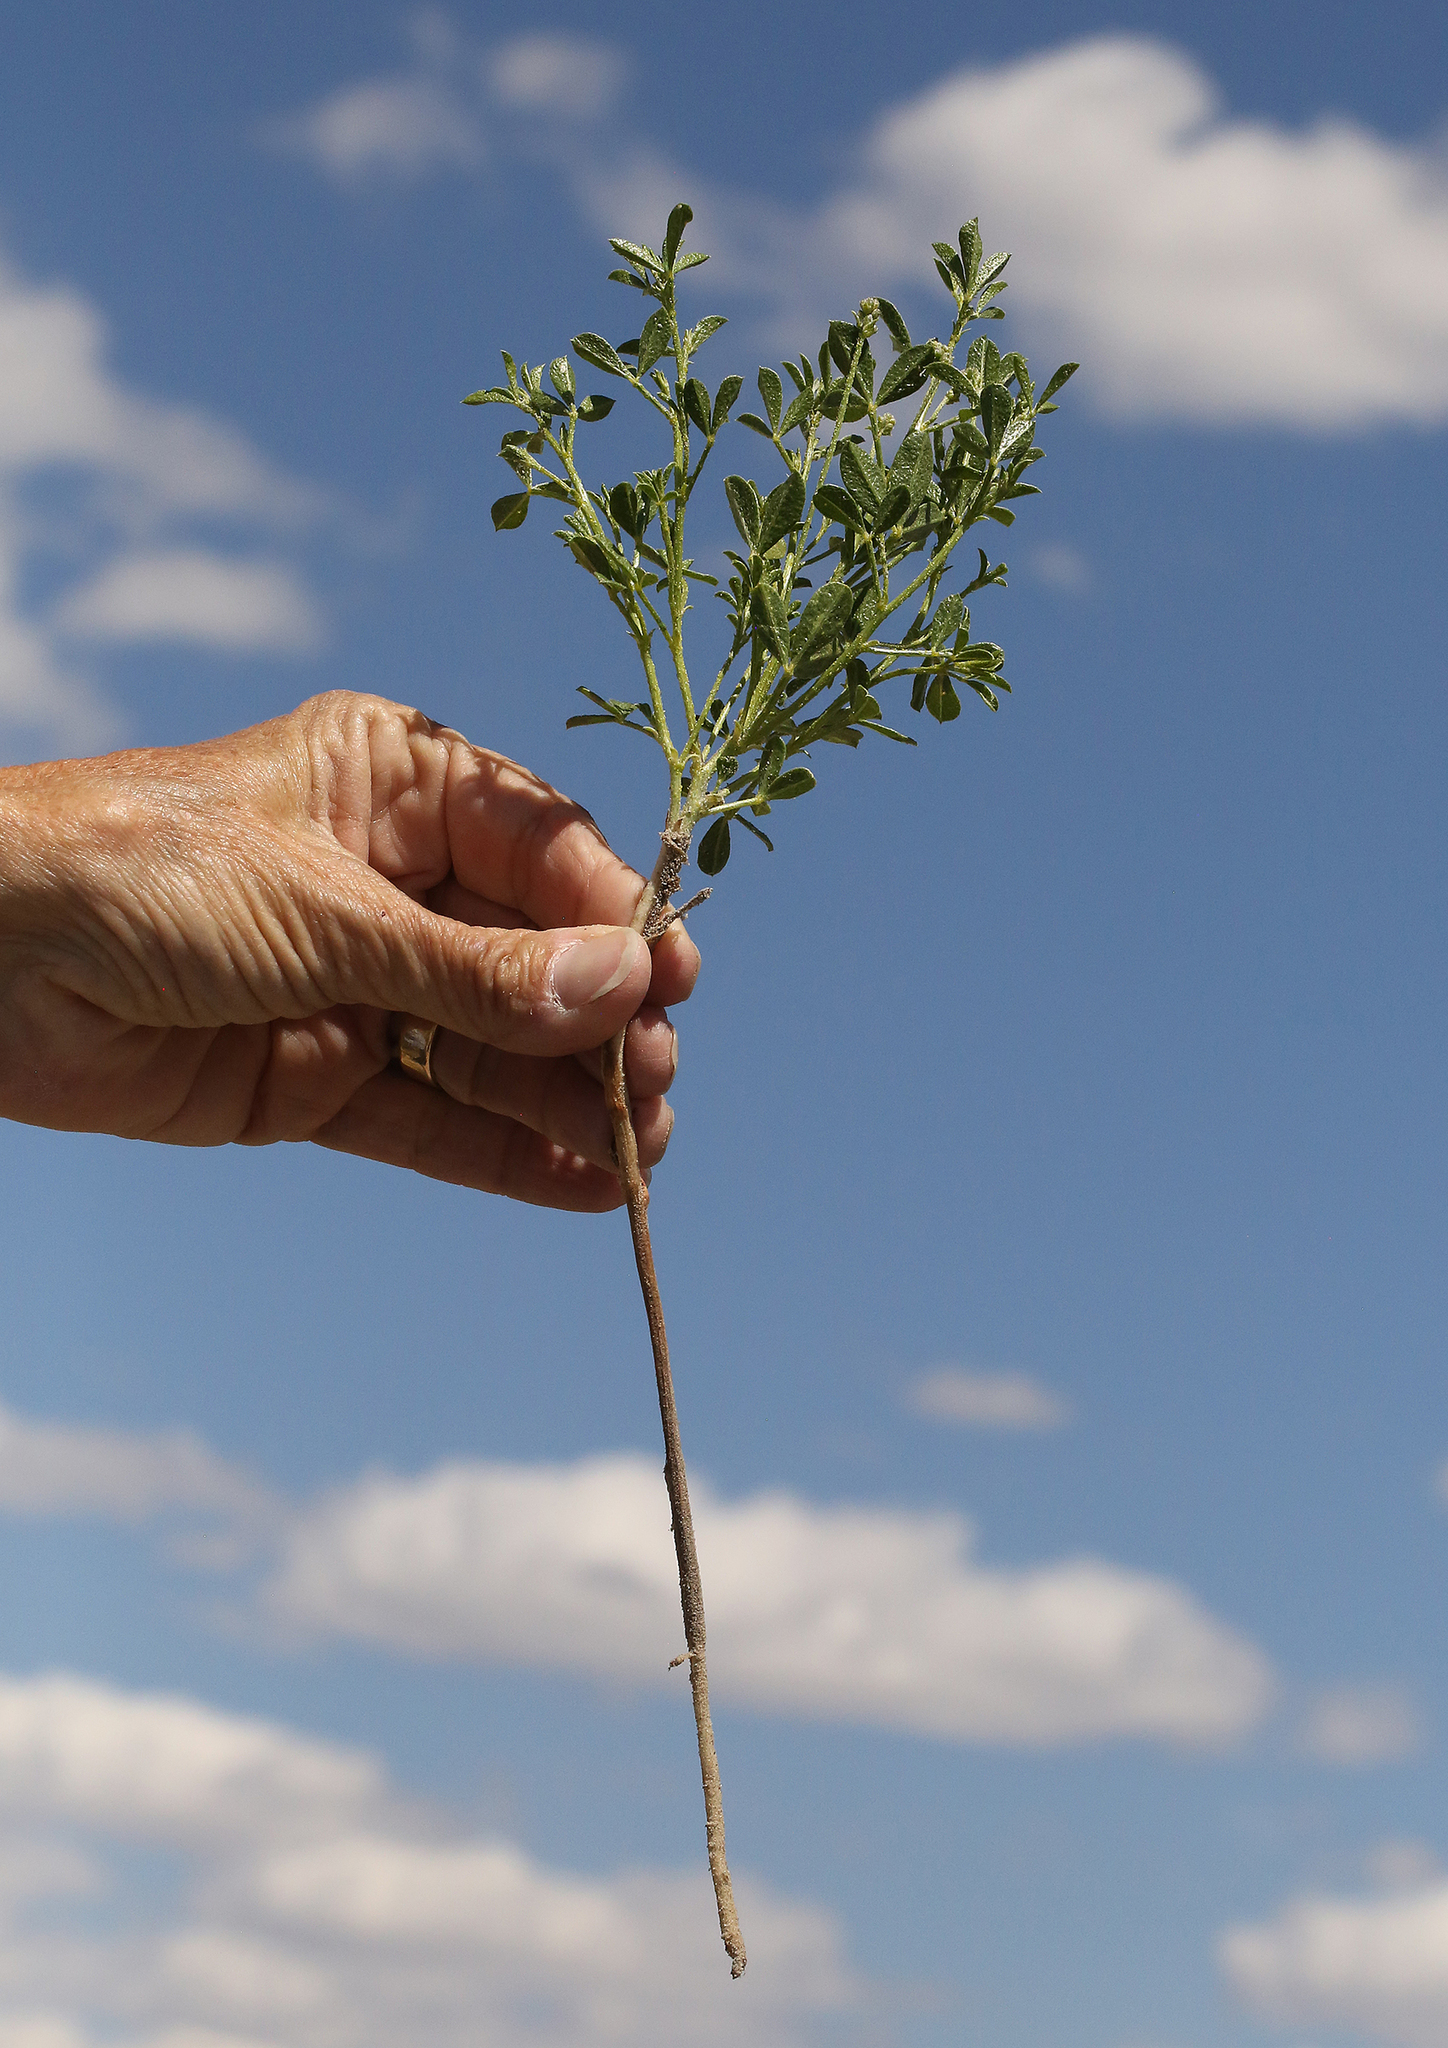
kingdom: Plantae
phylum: Tracheophyta
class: Magnoliopsida
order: Fabales
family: Fabaceae
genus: Ladeania
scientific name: Ladeania lanceolata
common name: Dune scurf-pea
